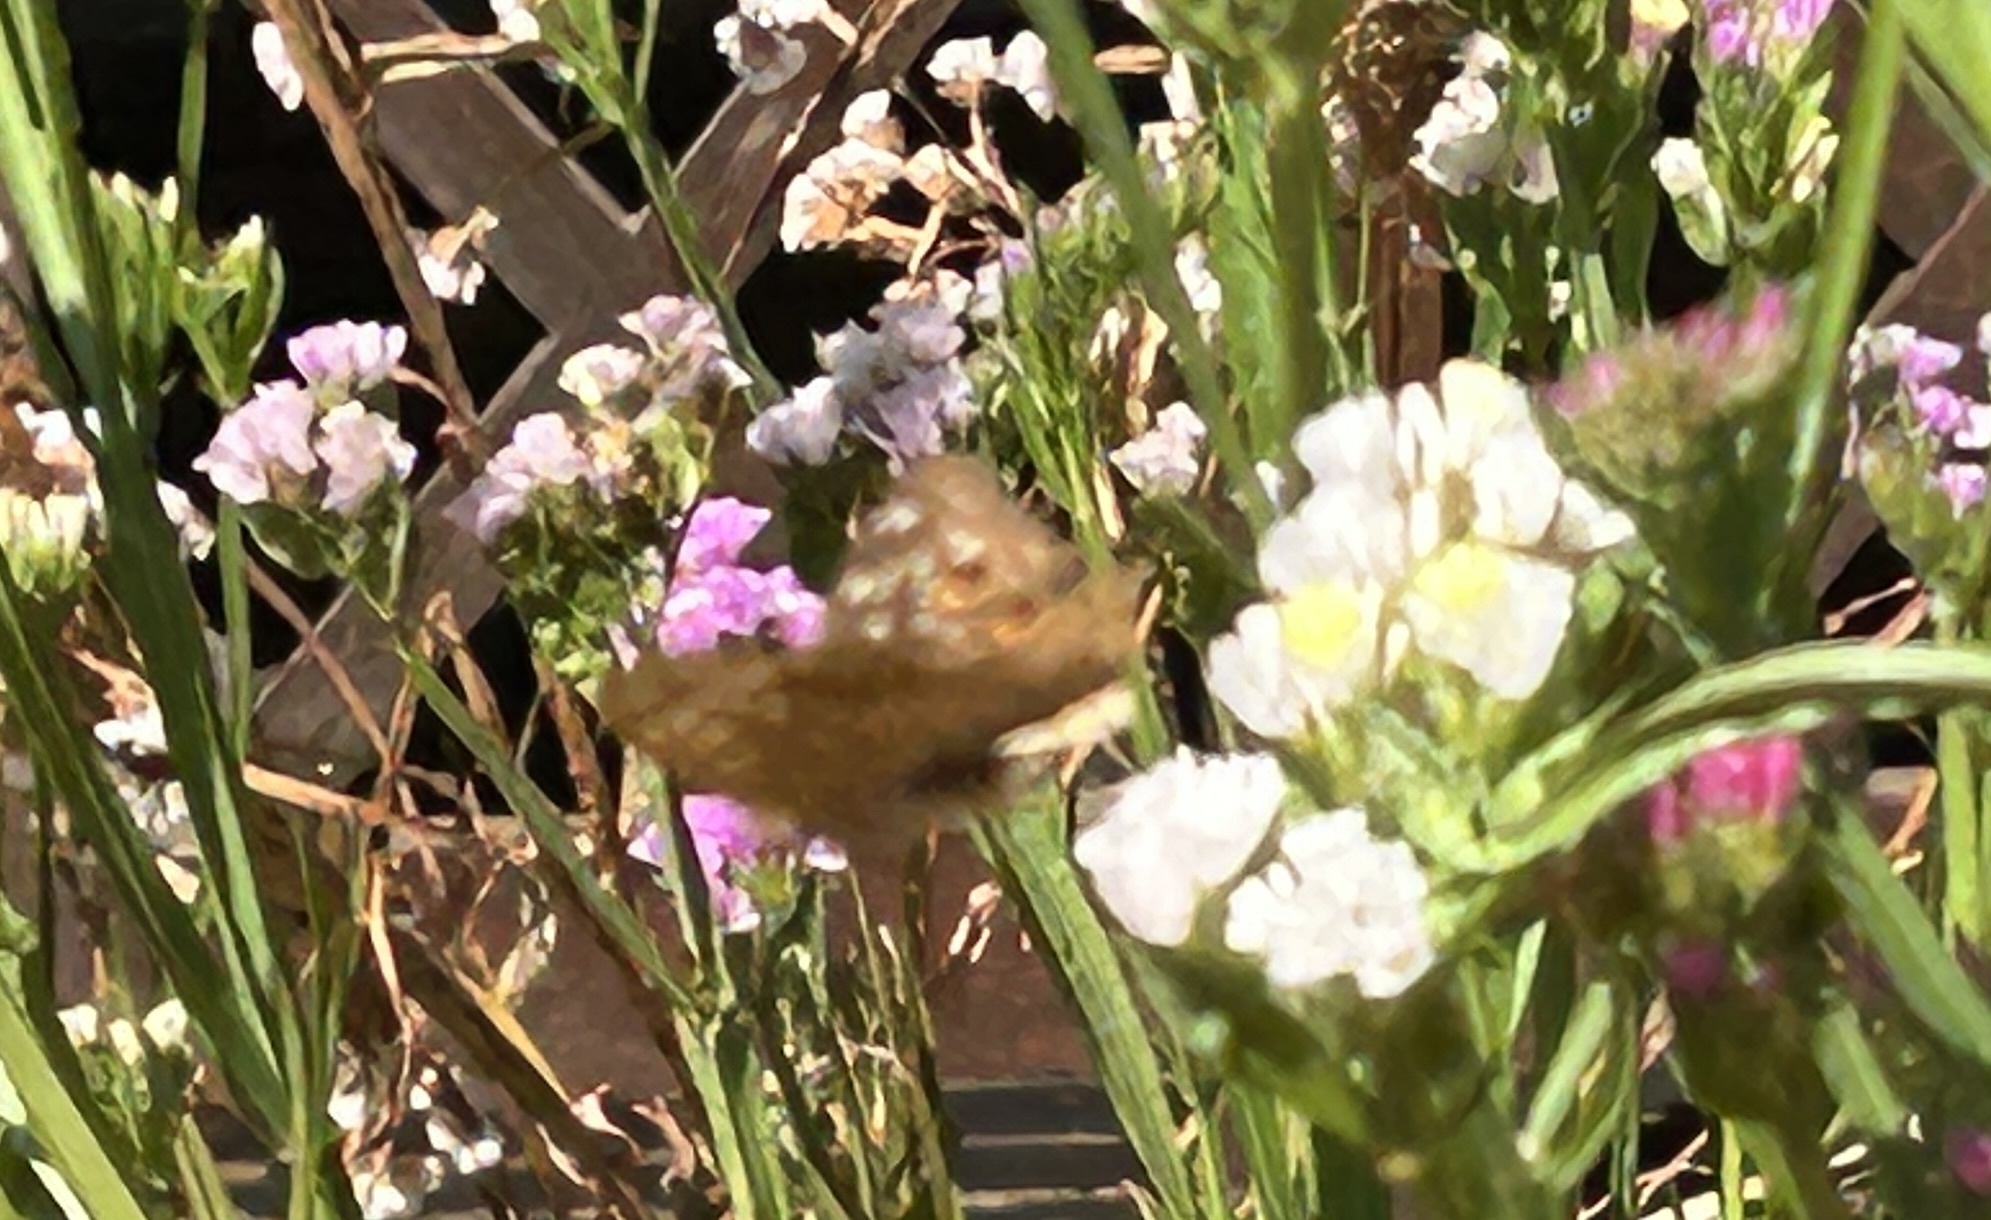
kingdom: Animalia
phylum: Arthropoda
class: Insecta
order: Lepidoptera
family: Nymphalidae
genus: Junonia
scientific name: Junonia lemonias
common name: Lemon pansy
